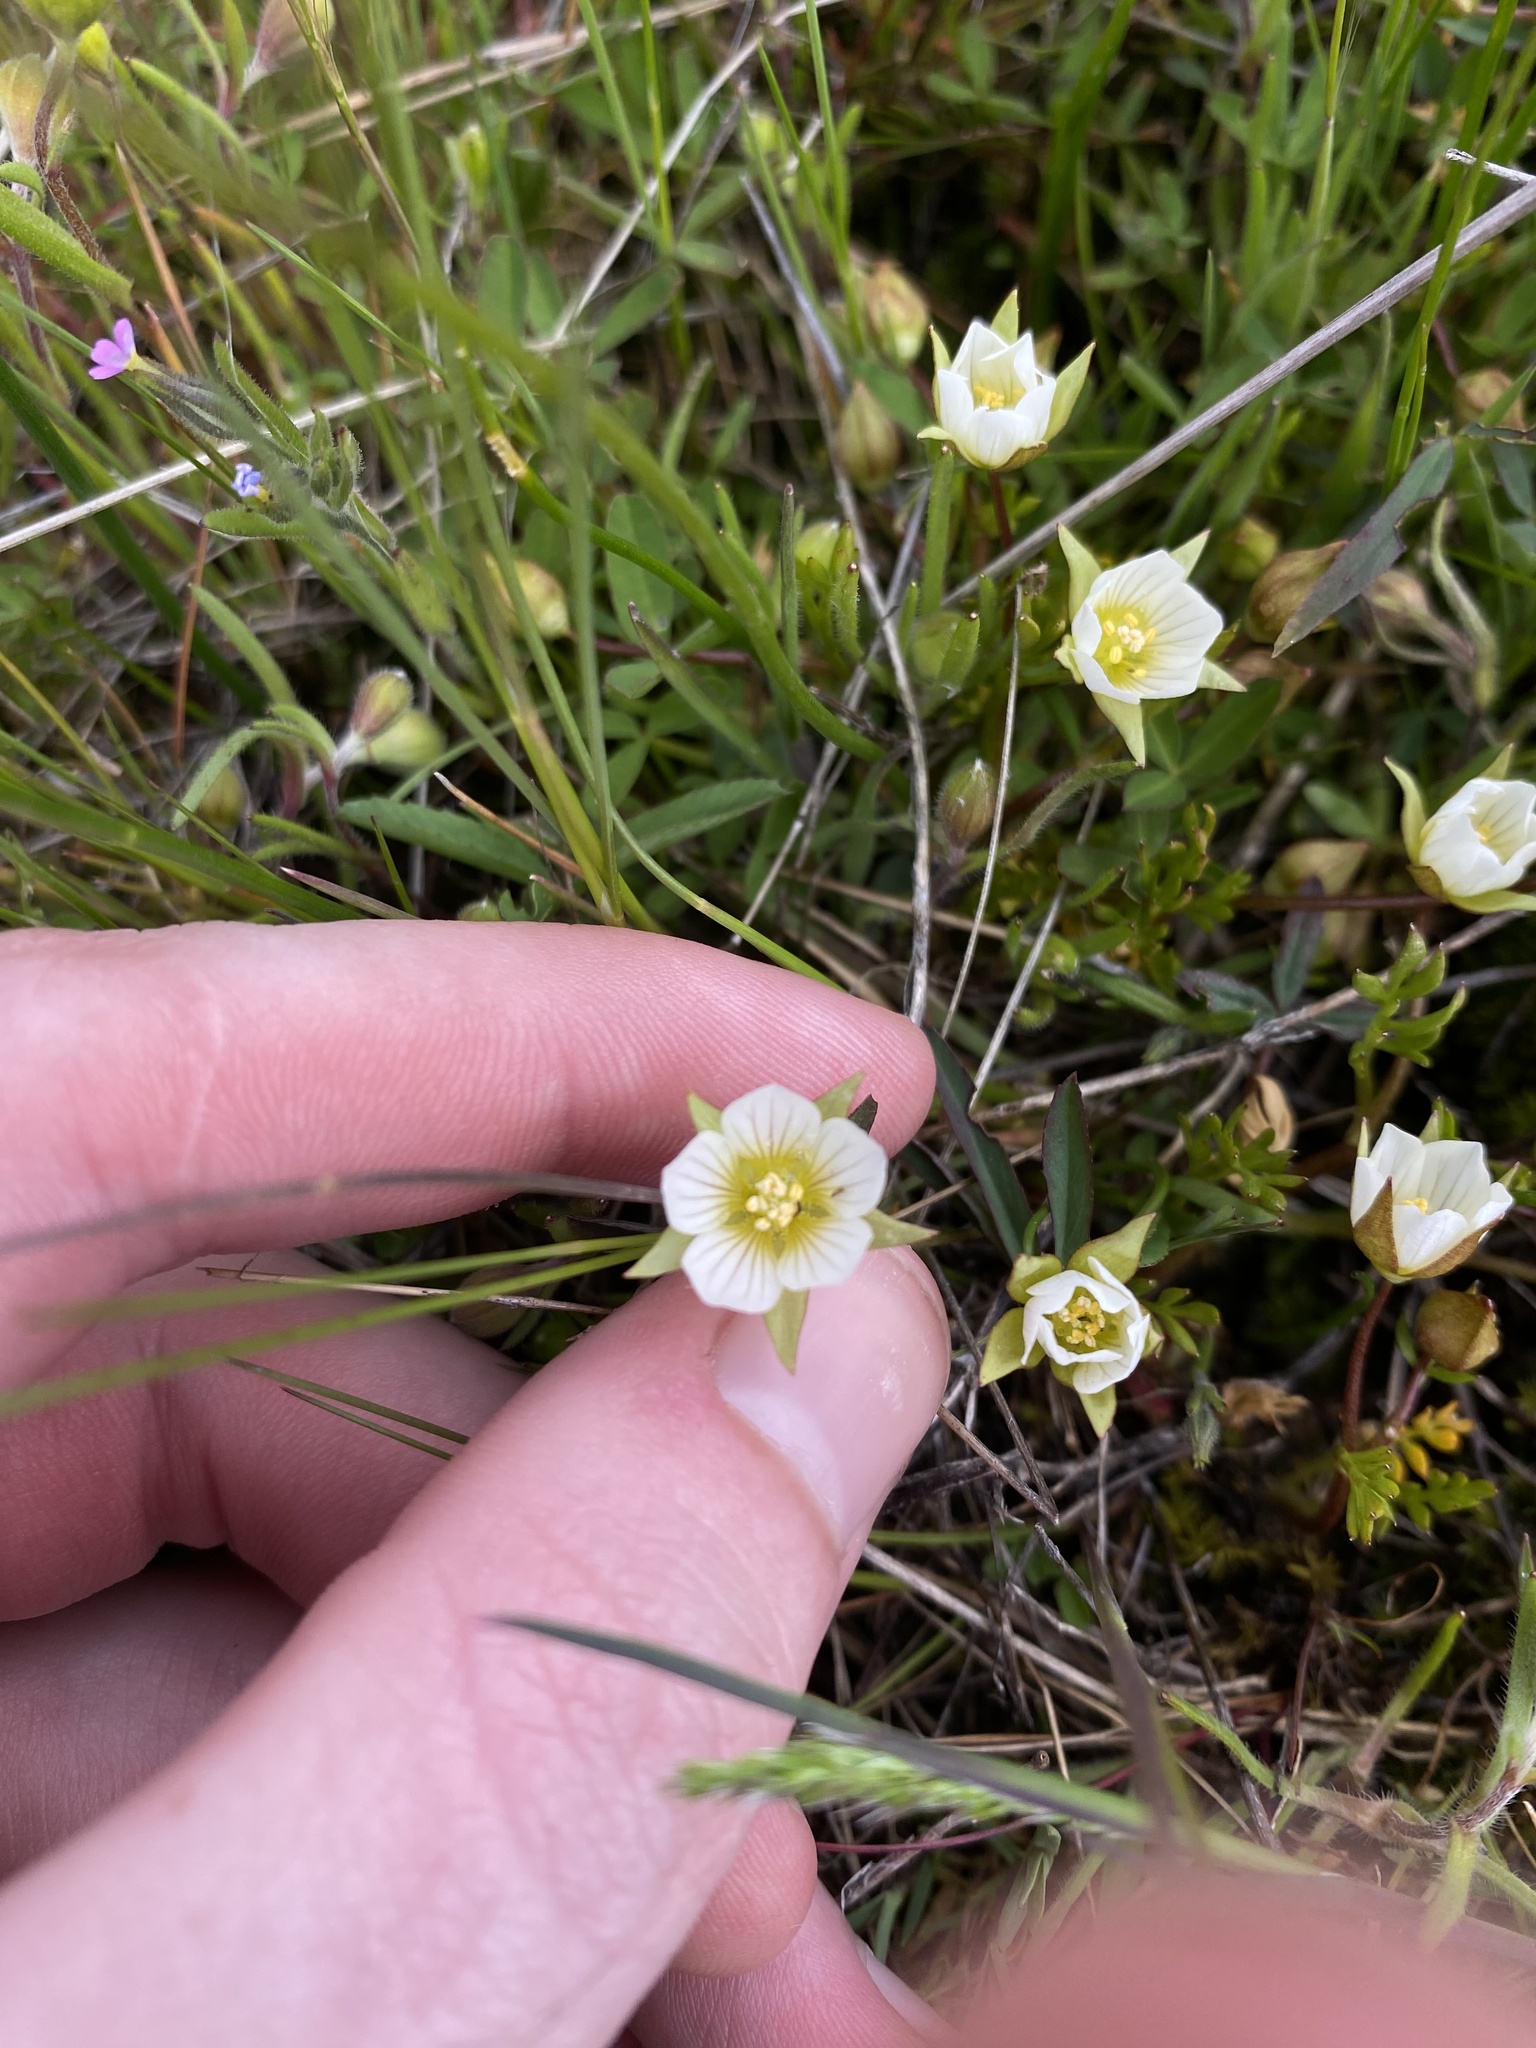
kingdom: Plantae
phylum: Tracheophyta
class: Magnoliopsida
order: Brassicales
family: Limnanthaceae
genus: Limnanthes
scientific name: Limnanthes pumila
